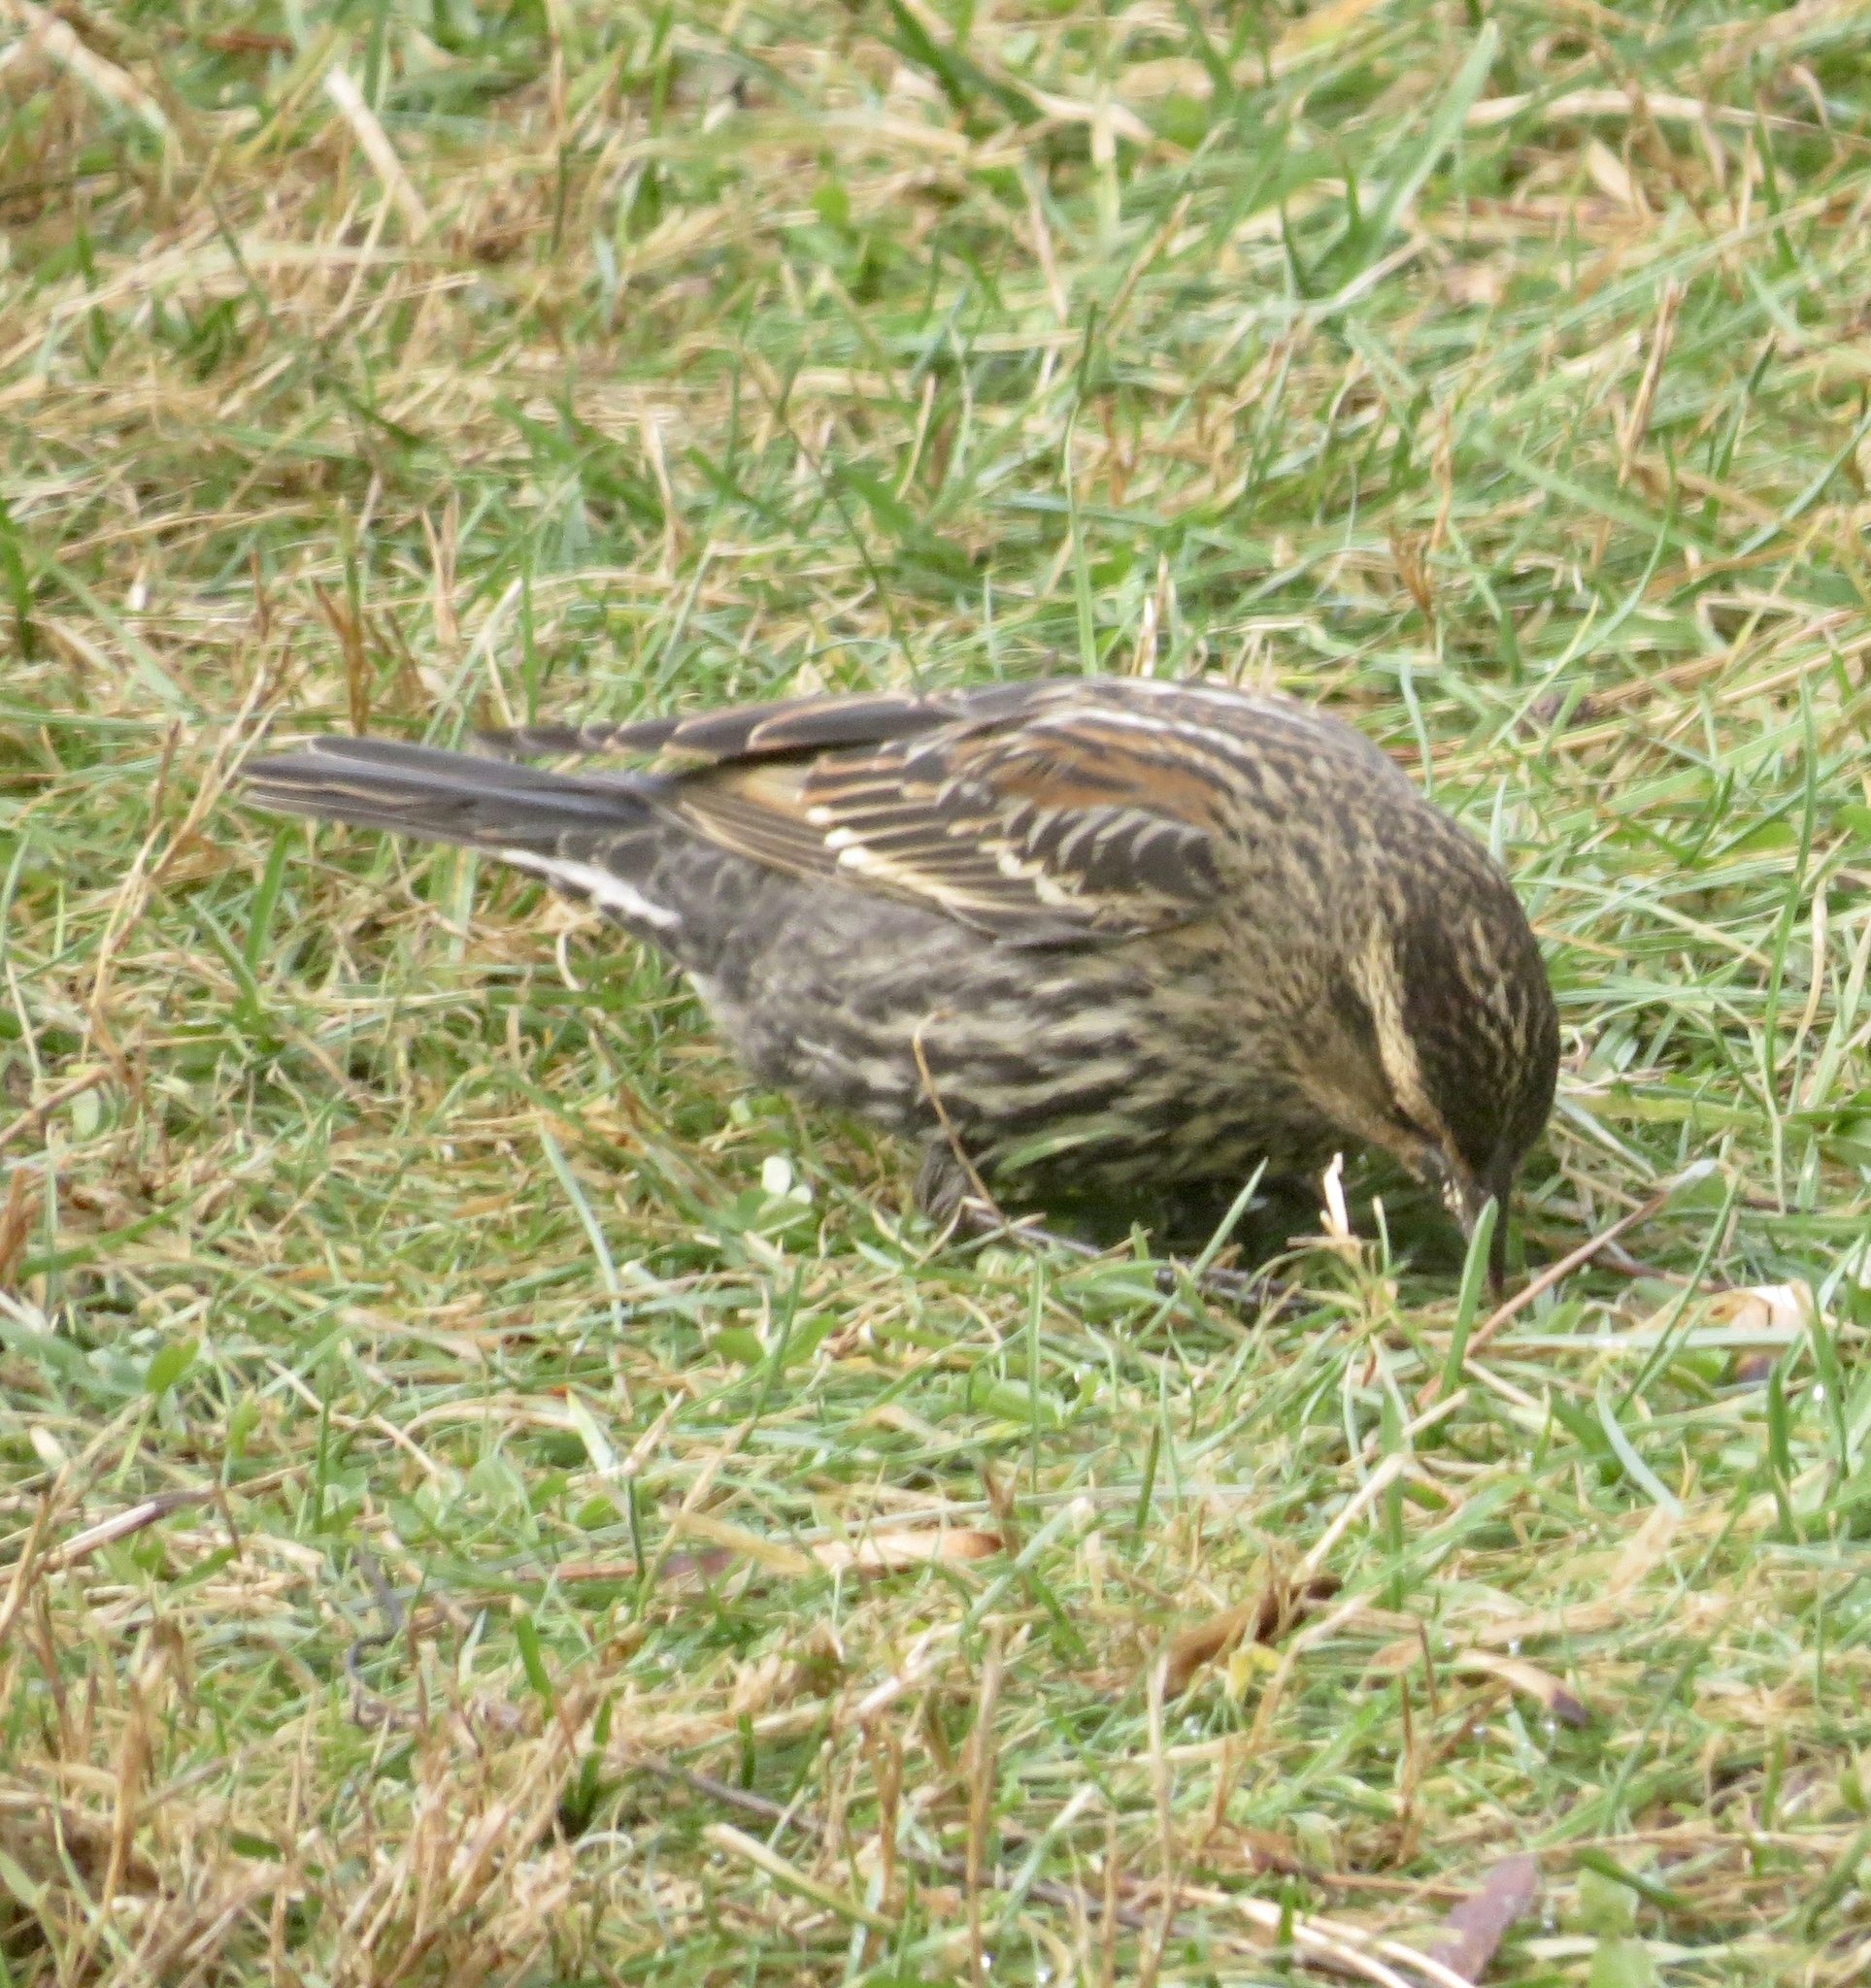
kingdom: Animalia
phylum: Chordata
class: Aves
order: Passeriformes
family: Icteridae
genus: Agelaius
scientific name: Agelaius phoeniceus
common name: Red-winged blackbird
